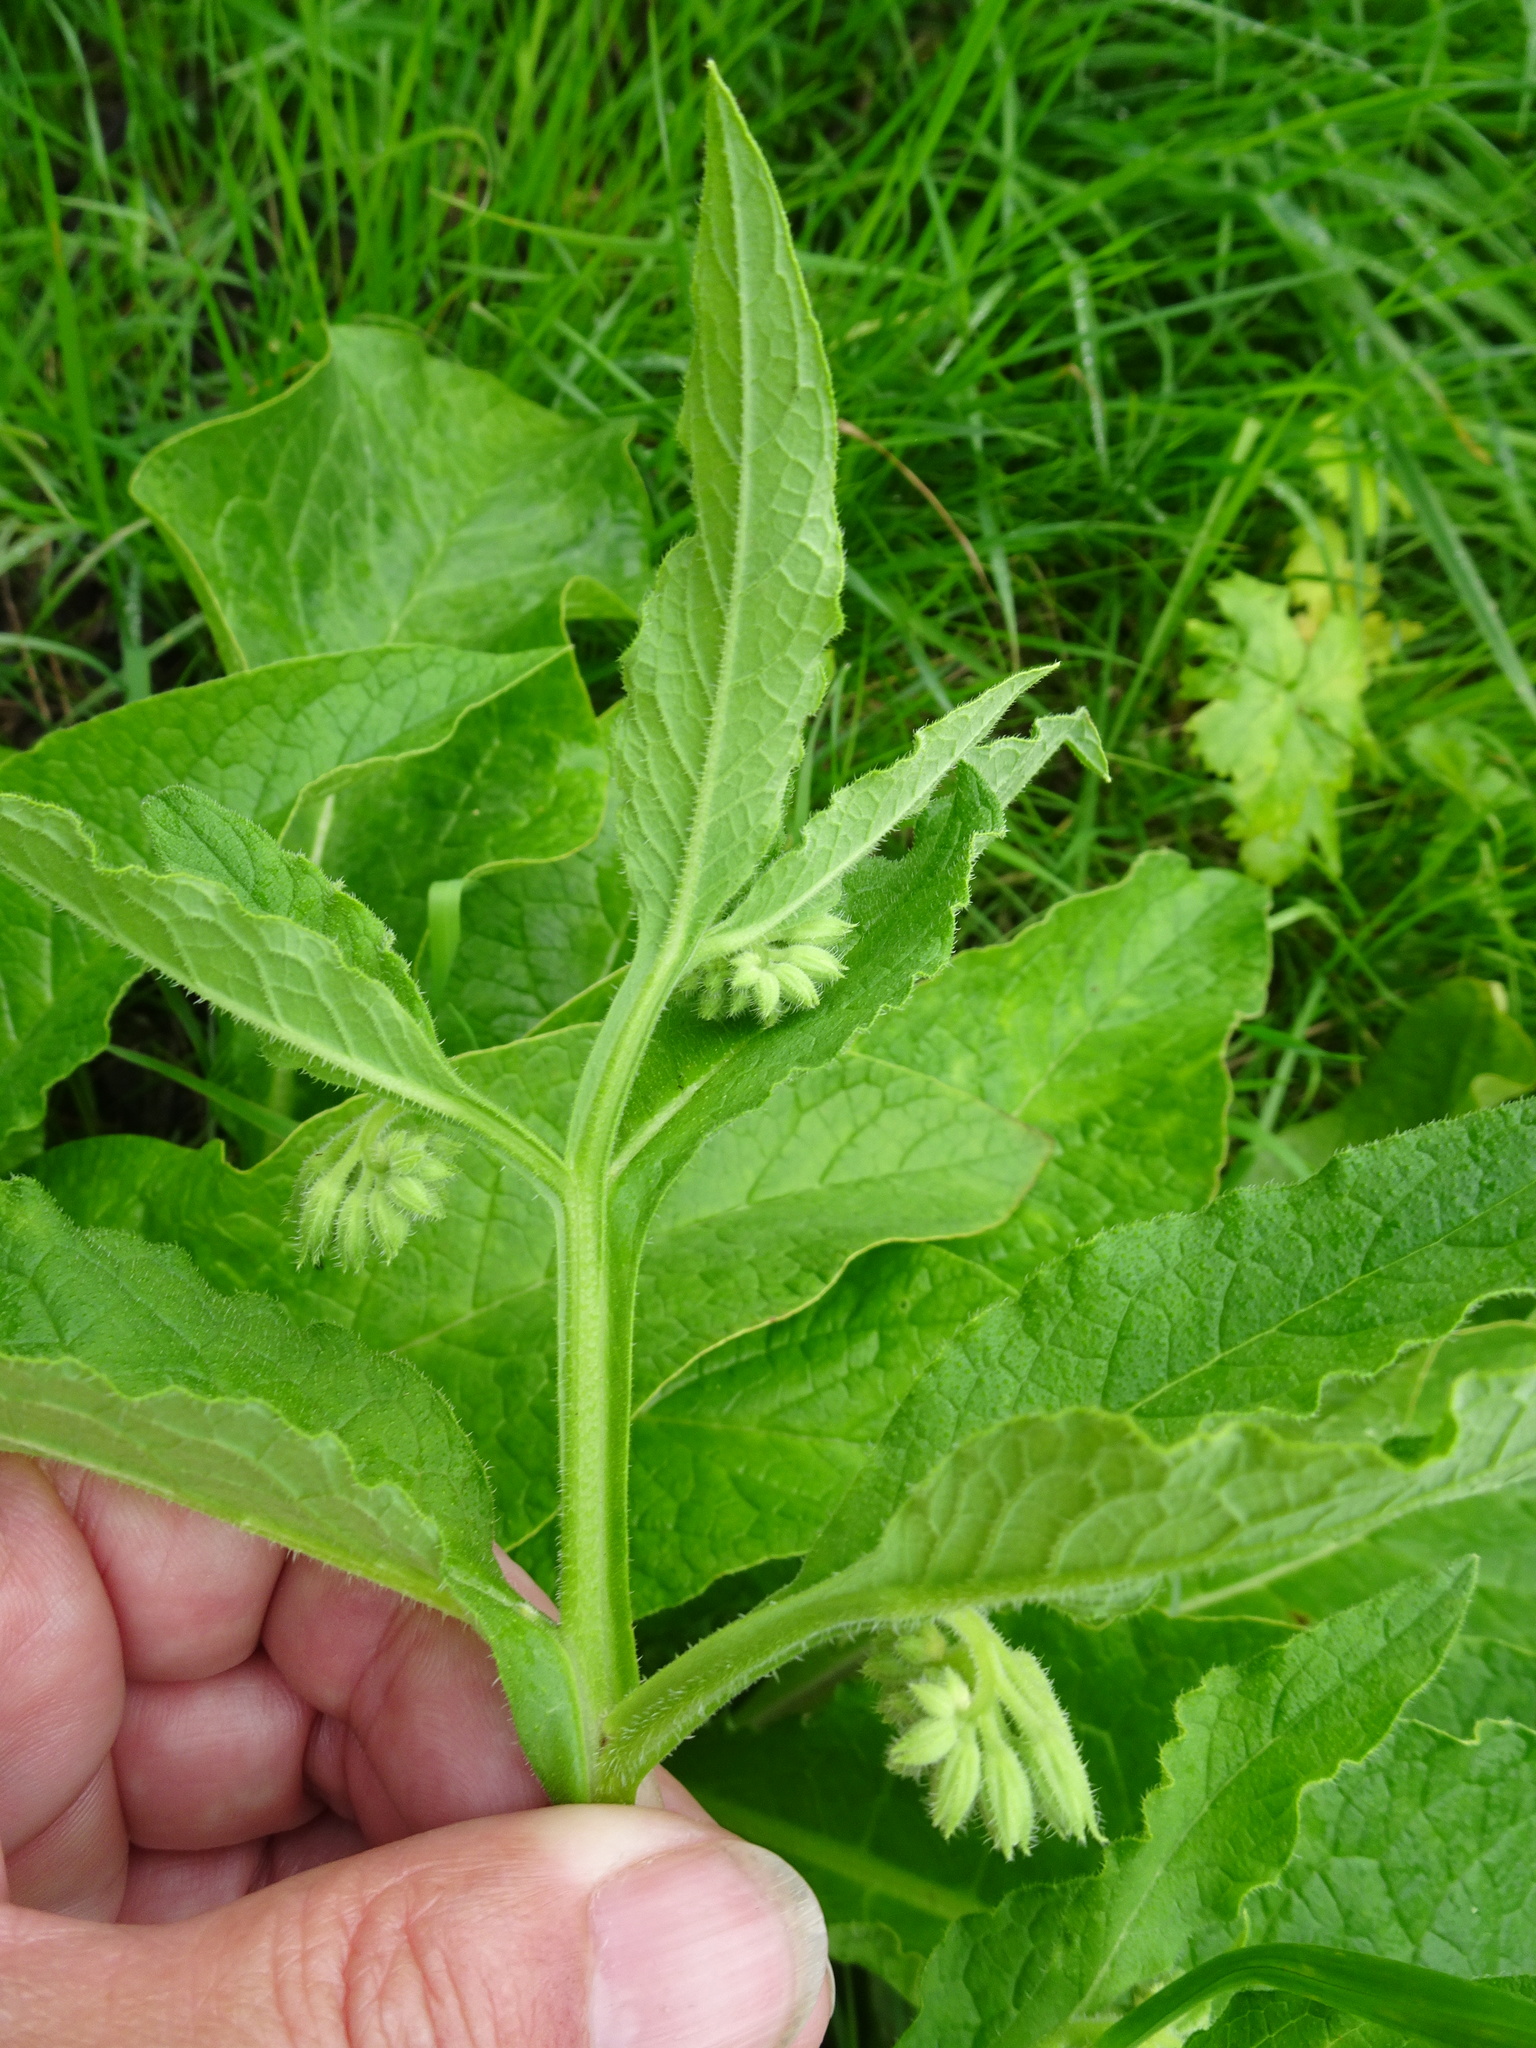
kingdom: Plantae
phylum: Tracheophyta
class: Magnoliopsida
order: Boraginales
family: Boraginaceae
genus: Symphytum
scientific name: Symphytum officinale
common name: Common comfrey
